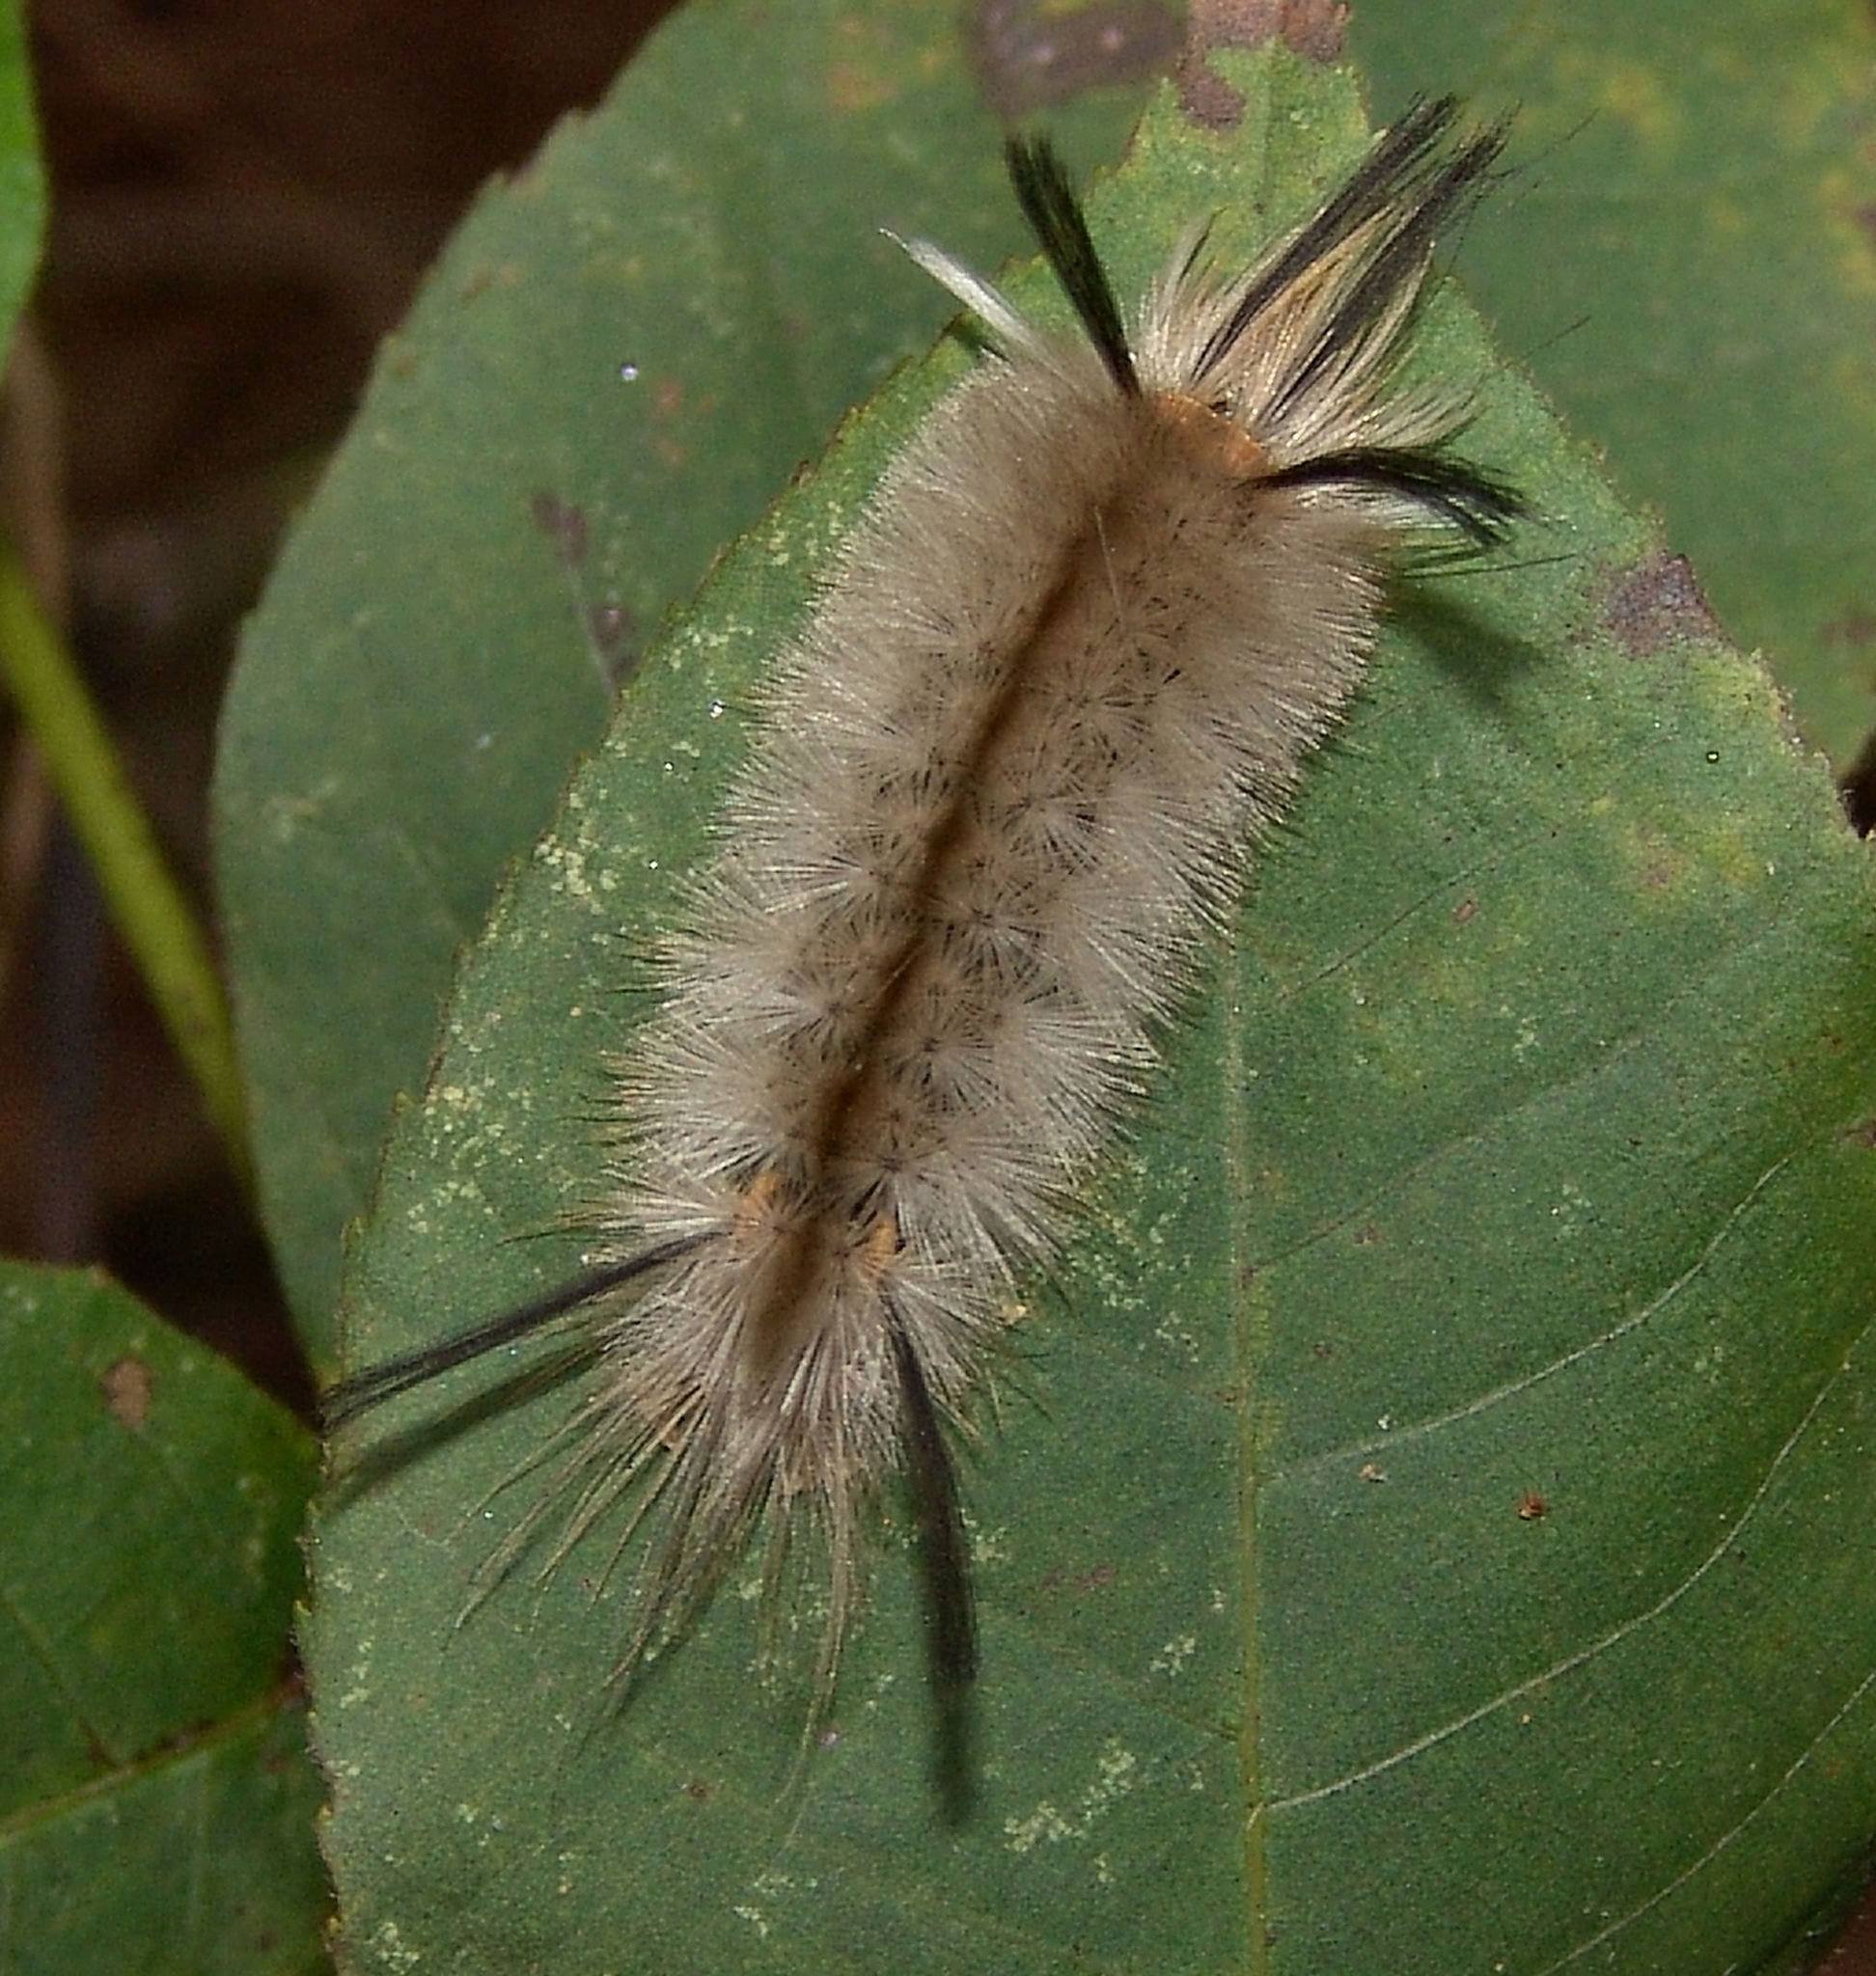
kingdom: Animalia
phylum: Arthropoda
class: Insecta
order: Lepidoptera
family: Erebidae
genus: Halysidota
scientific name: Halysidota tessellaris
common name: Banded tussock moth
